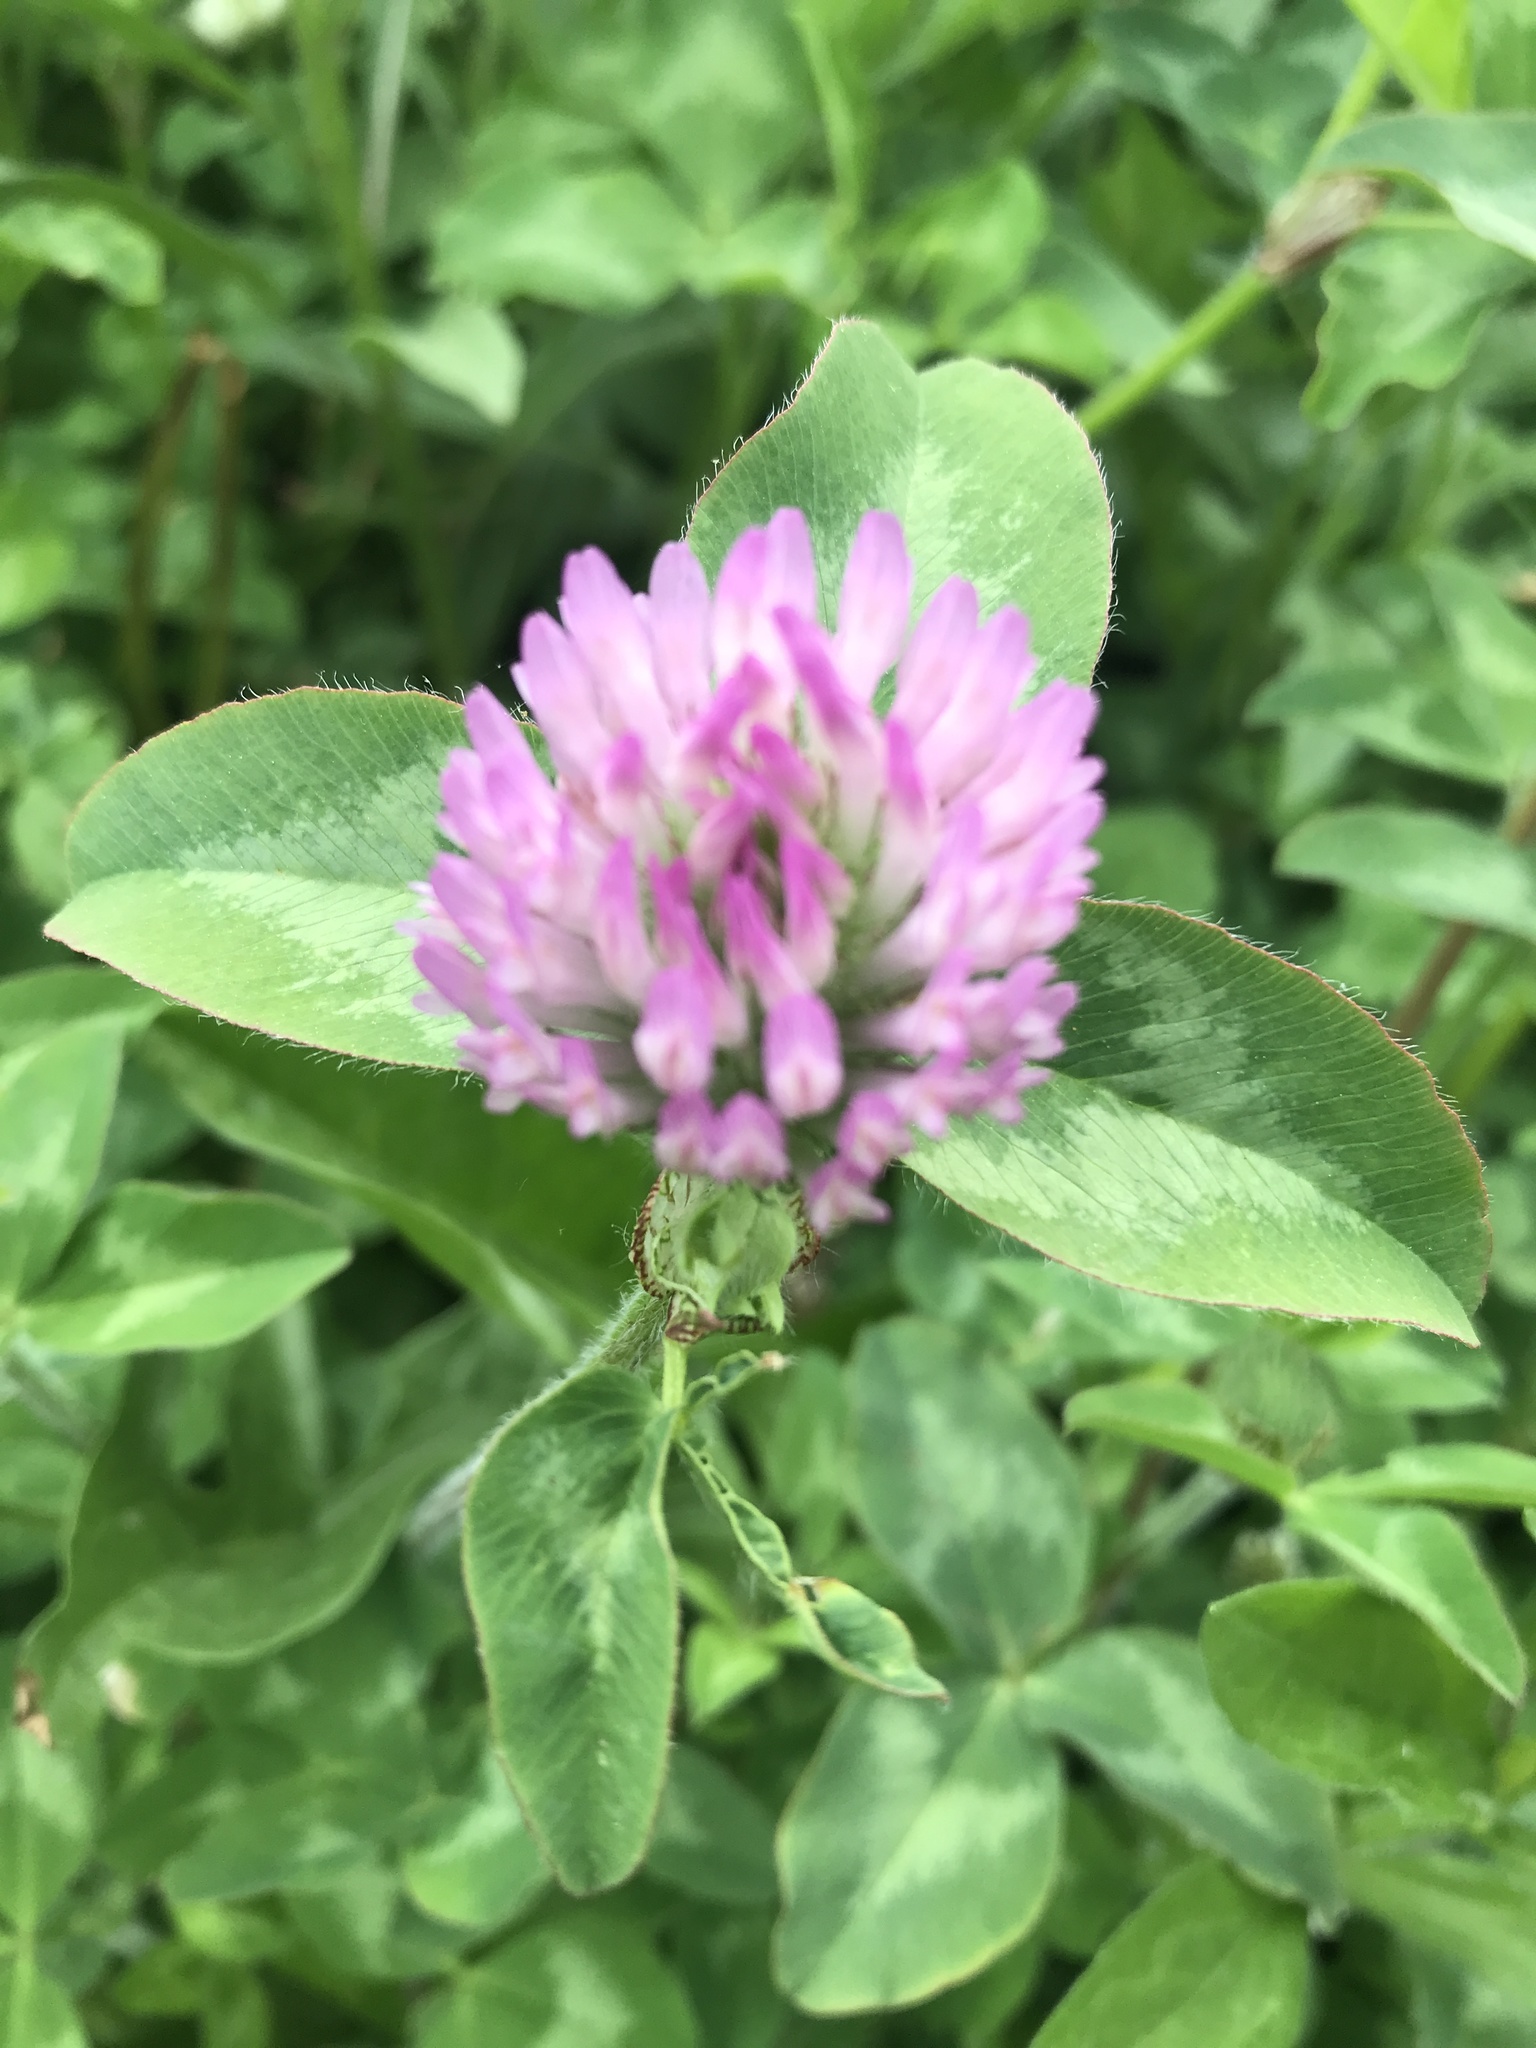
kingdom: Plantae
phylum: Tracheophyta
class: Magnoliopsida
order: Fabales
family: Fabaceae
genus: Trifolium
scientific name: Trifolium pratense
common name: Red clover
